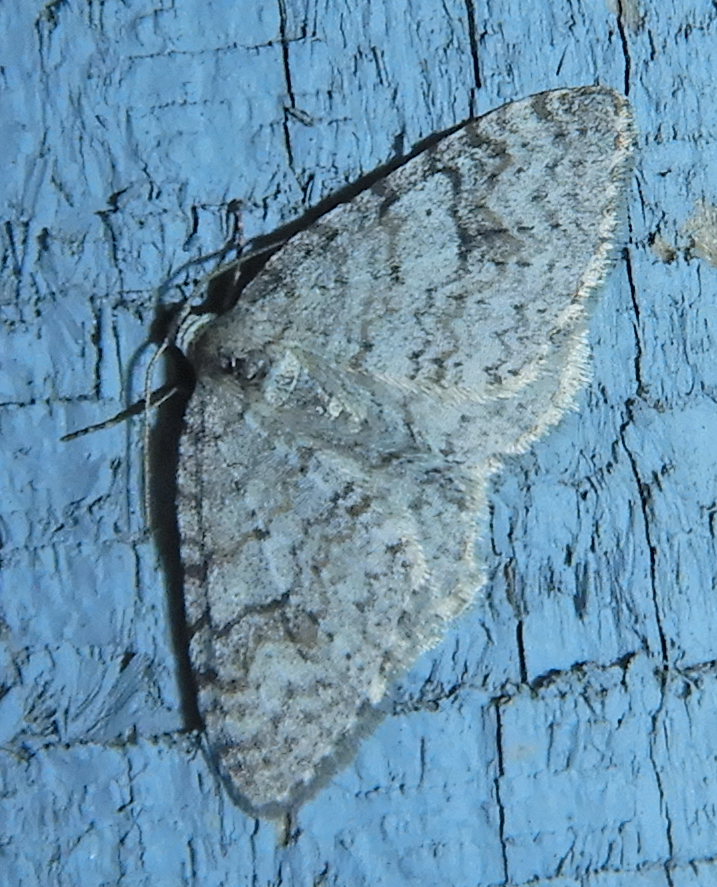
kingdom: Animalia
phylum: Arthropoda
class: Insecta
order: Lepidoptera
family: Geometridae
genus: Venusia
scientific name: Venusia comptaria
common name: Brown-shaded carpet
